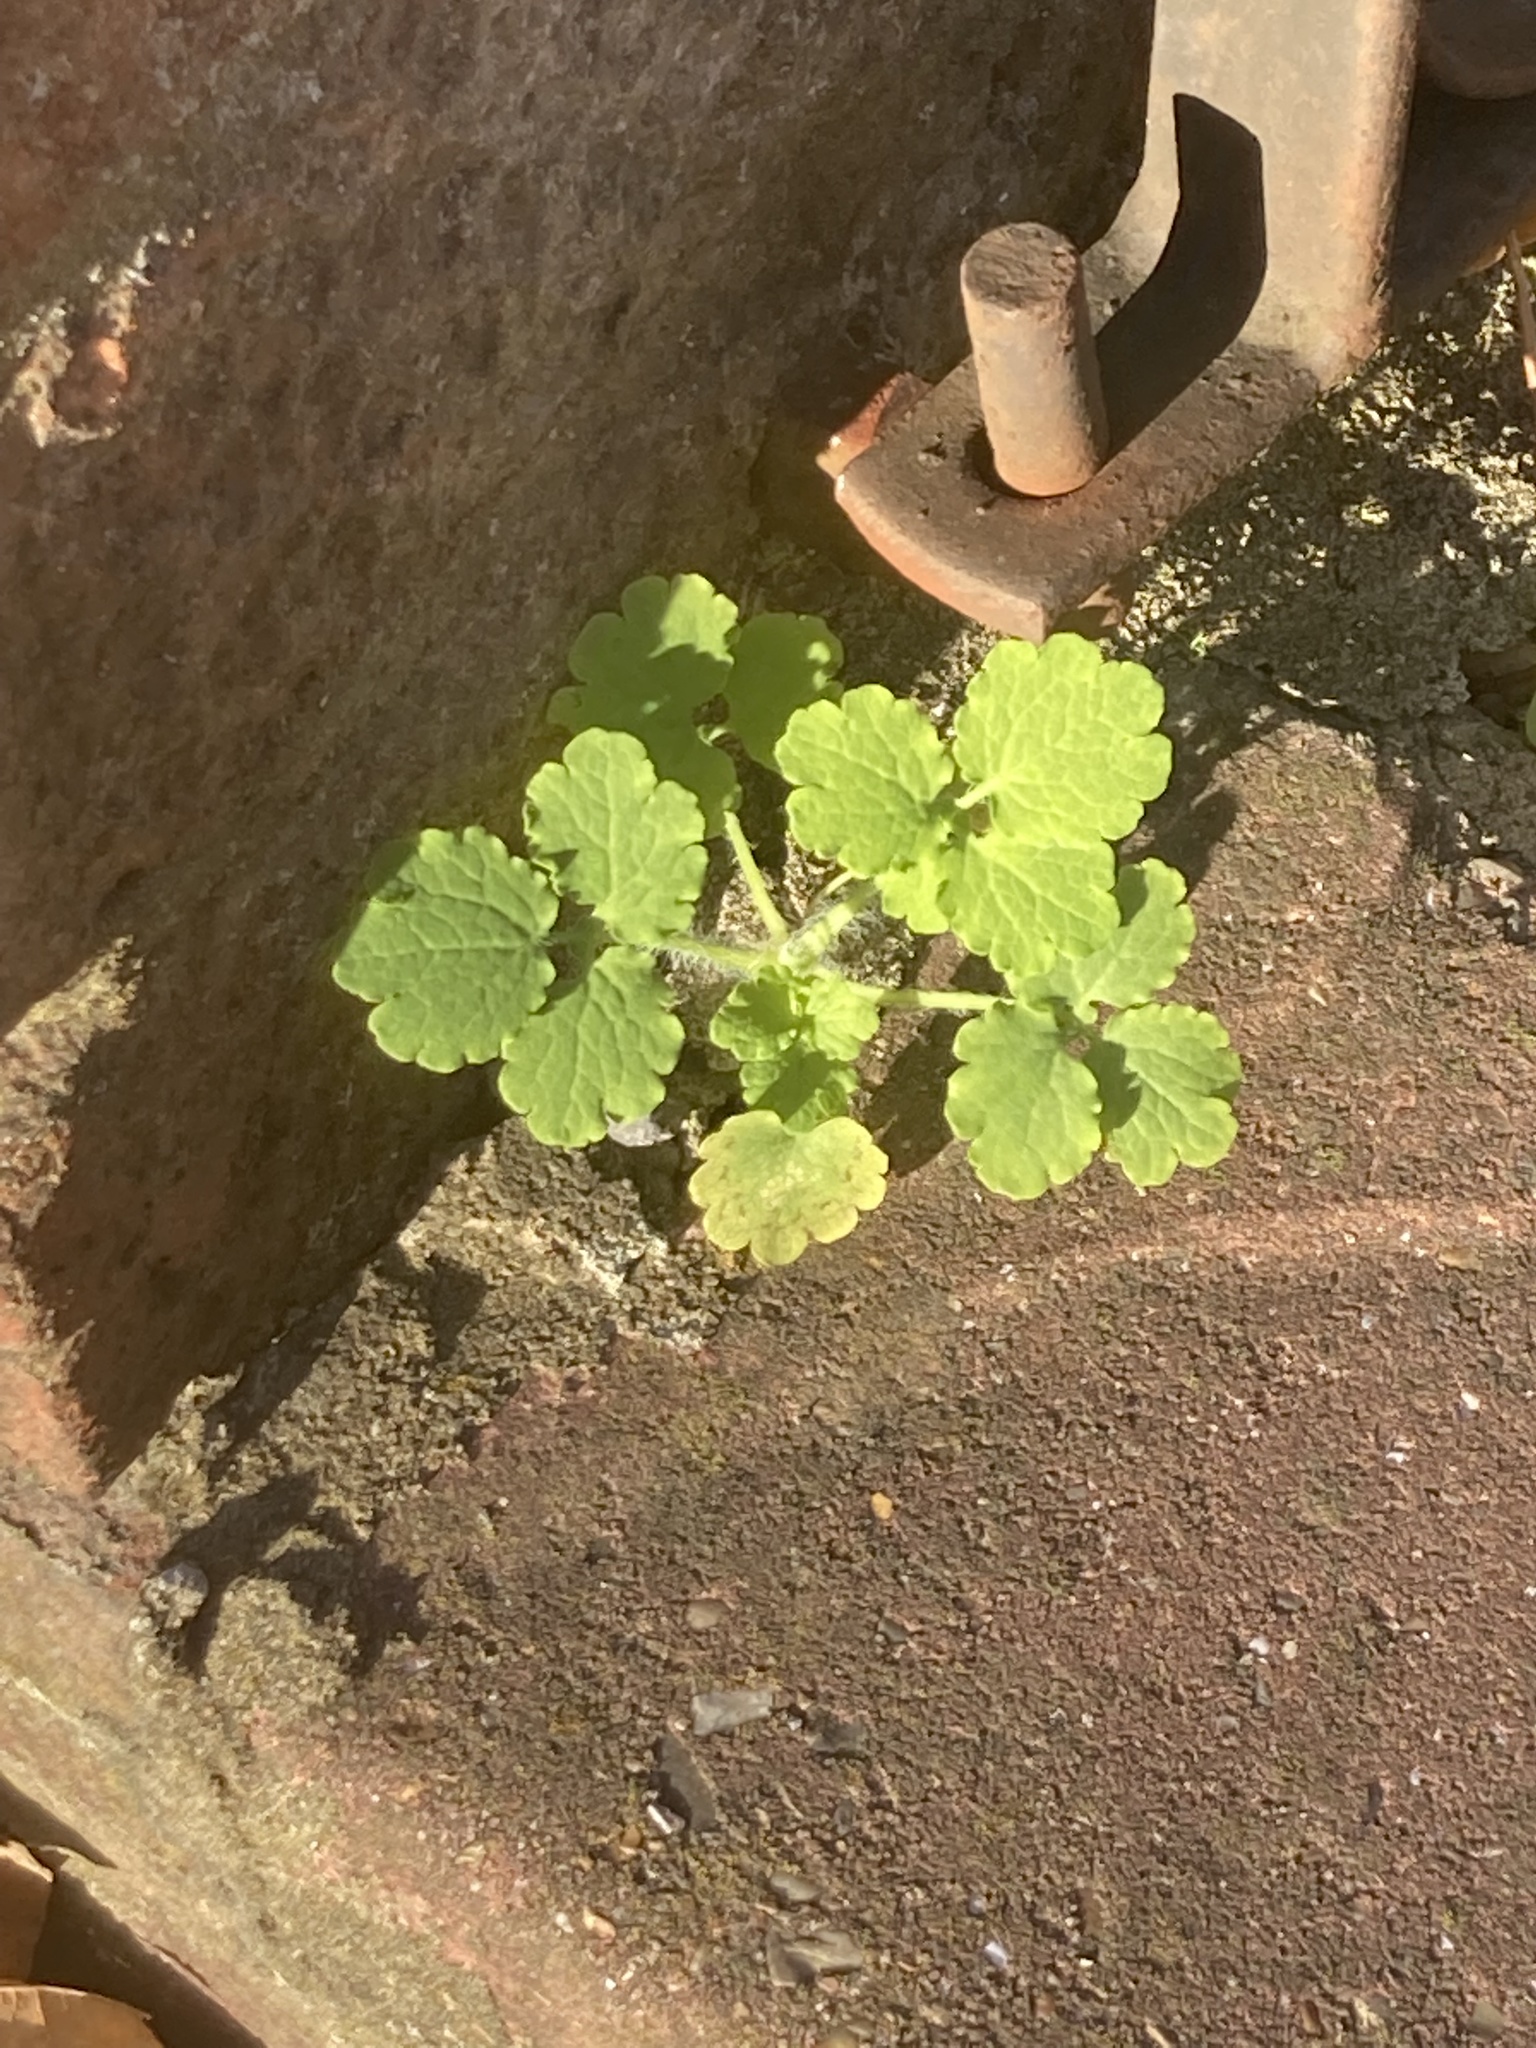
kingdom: Plantae
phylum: Tracheophyta
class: Magnoliopsida
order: Ranunculales
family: Papaveraceae
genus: Chelidonium
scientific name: Chelidonium majus
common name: Greater celandine
